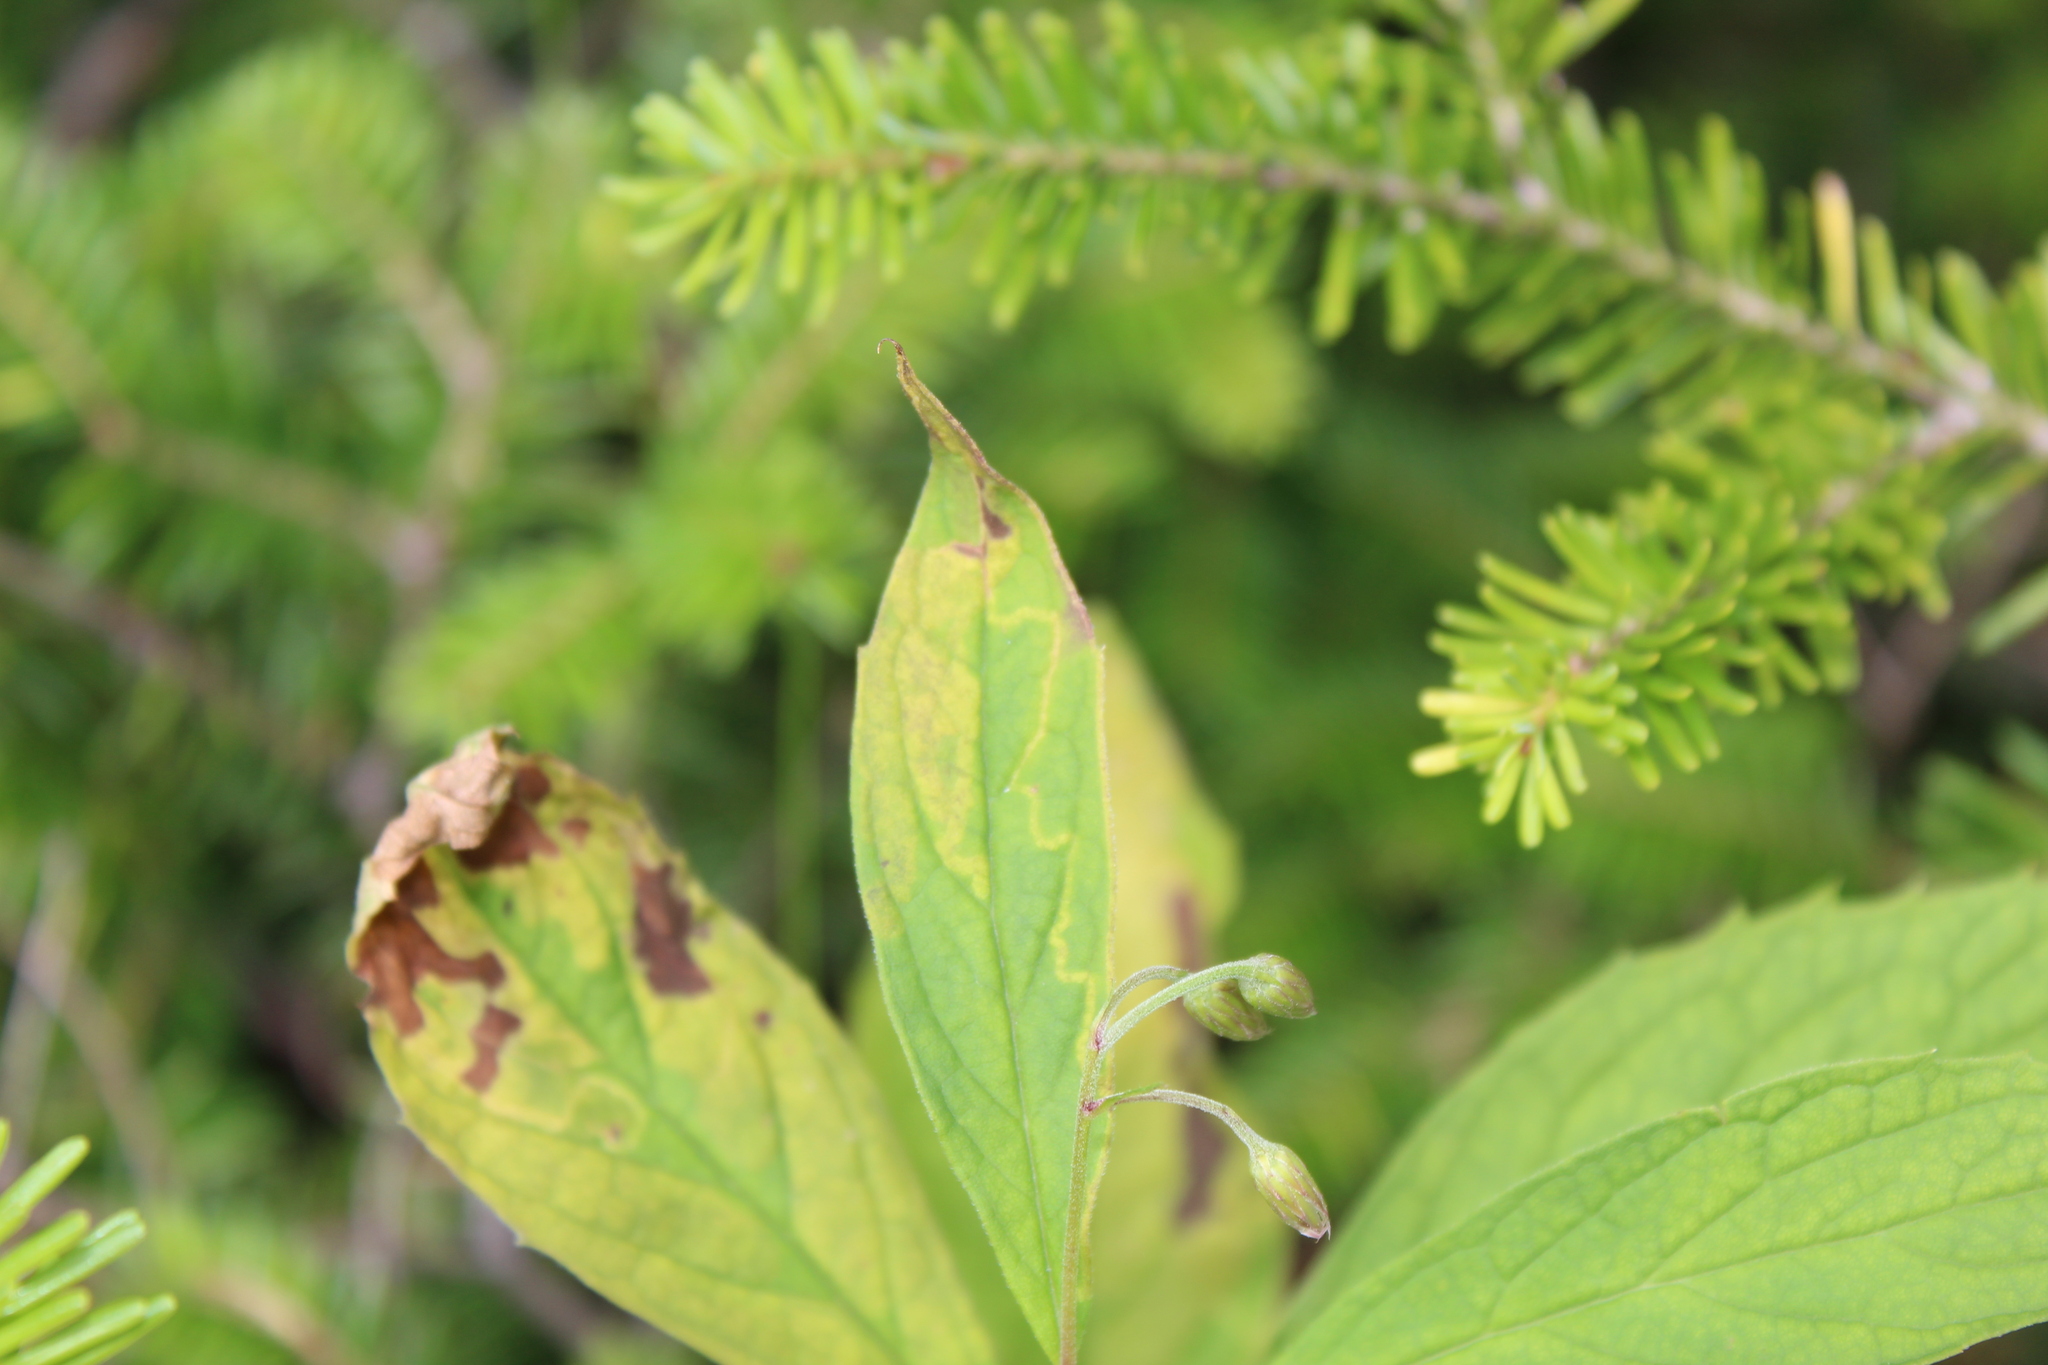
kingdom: Animalia
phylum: Arthropoda
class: Insecta
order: Lepidoptera
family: Gracillariidae
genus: Acrocercops
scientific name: Acrocercops astericola
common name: Aster tentiform blotchminer
